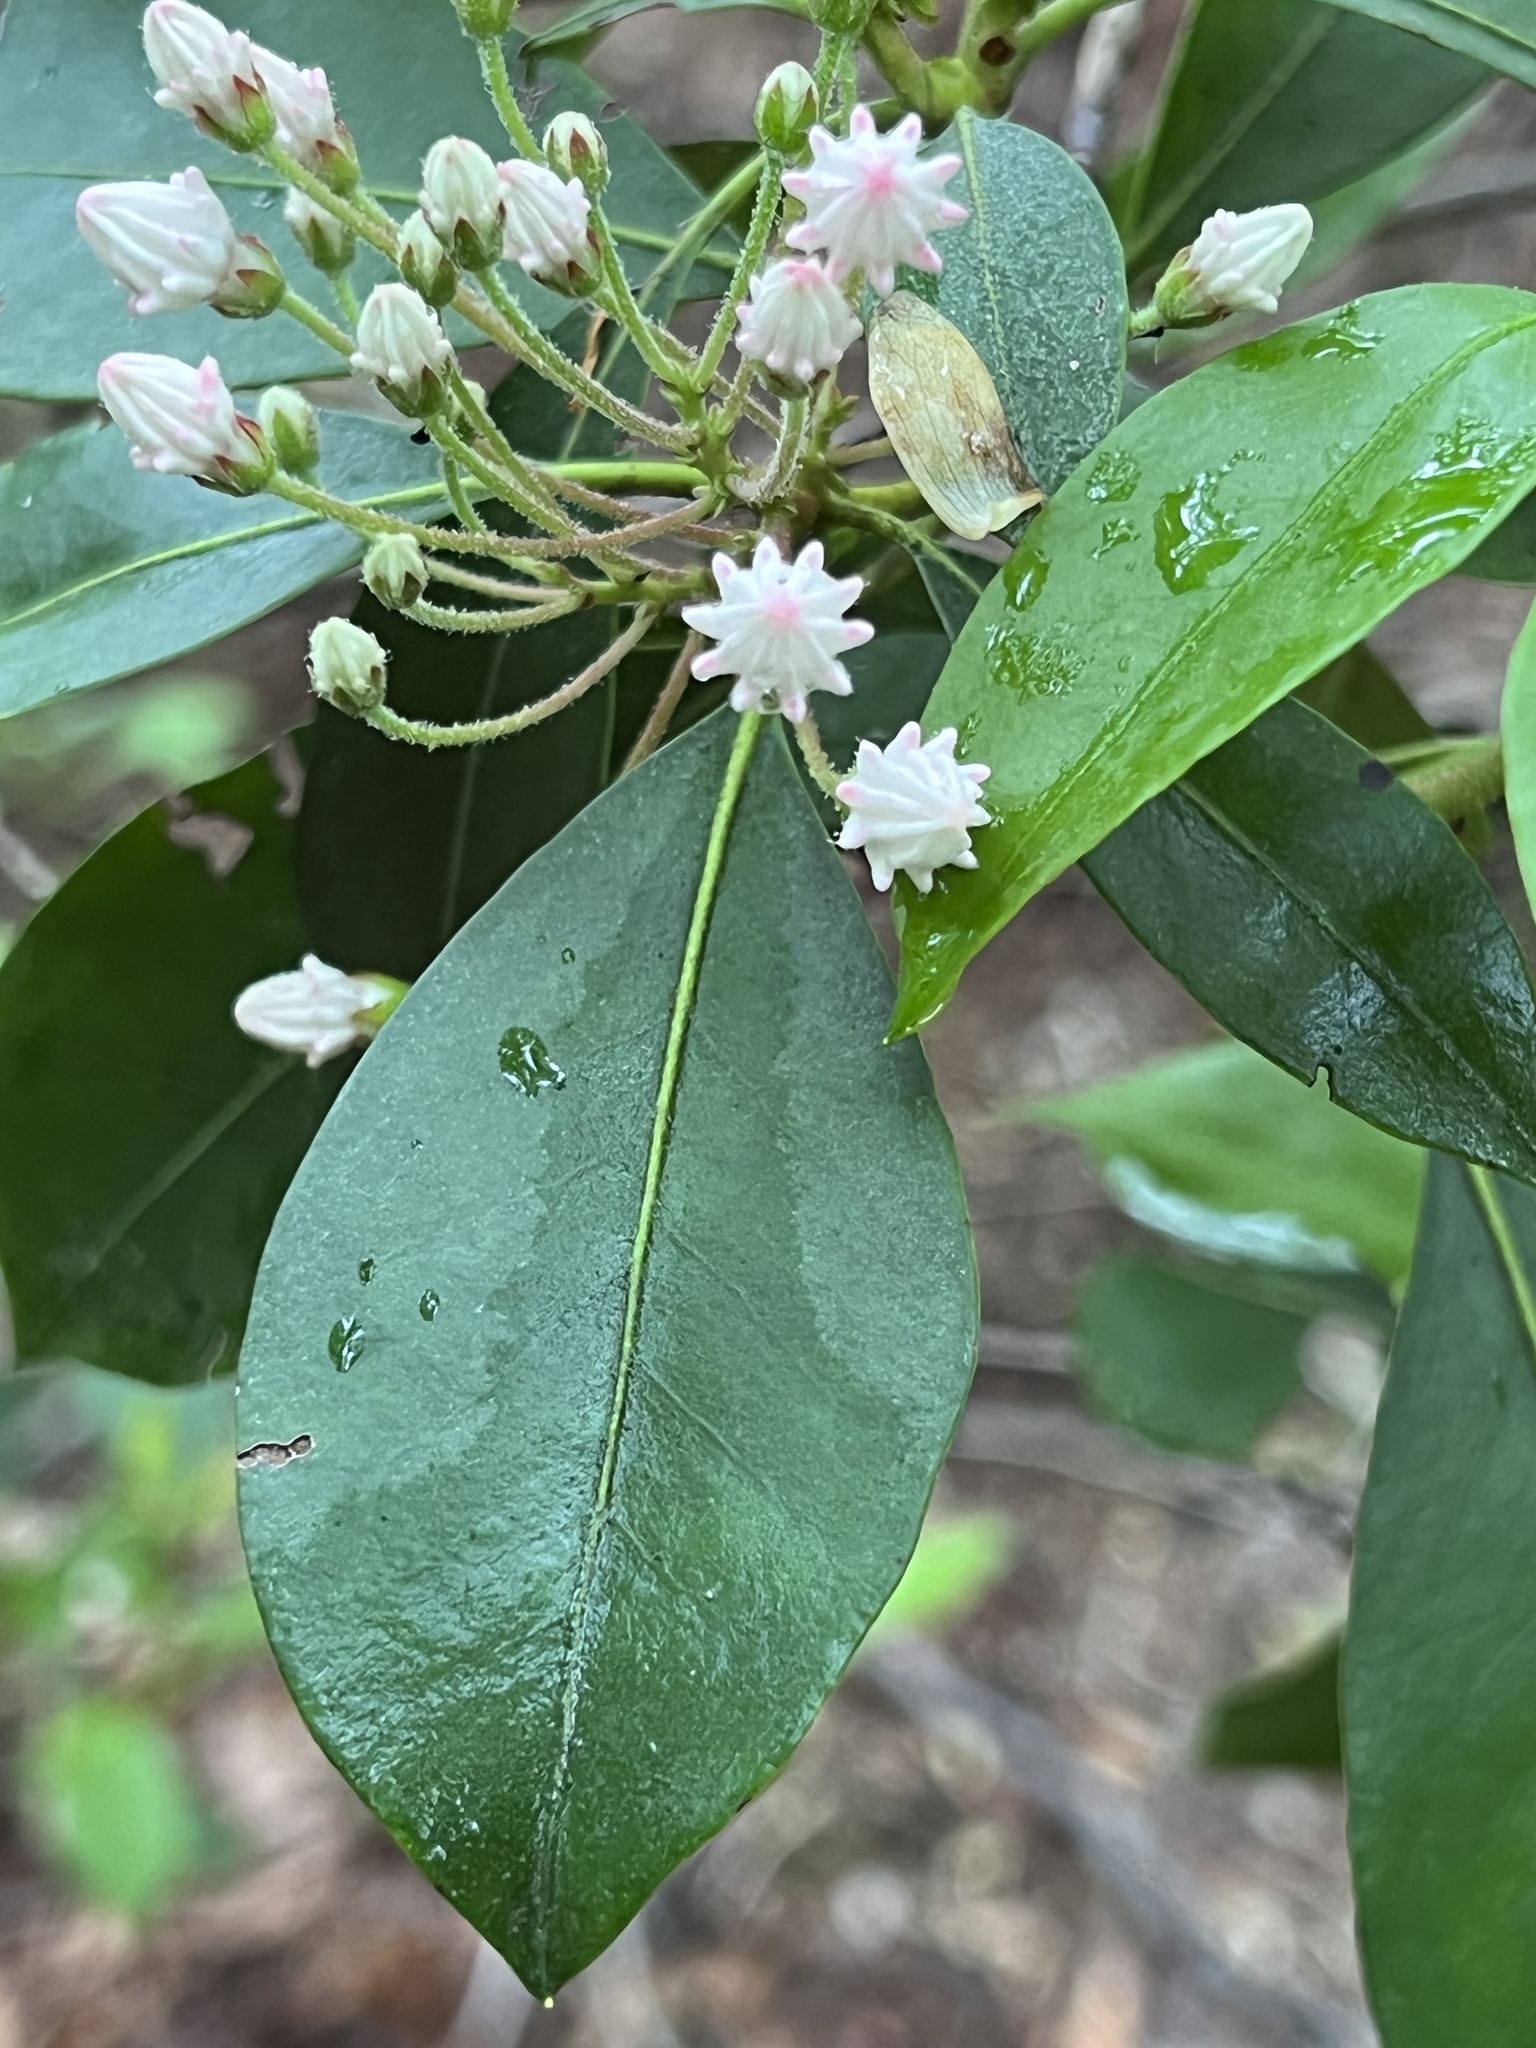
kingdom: Plantae
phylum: Tracheophyta
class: Magnoliopsida
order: Ericales
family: Ericaceae
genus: Kalmia
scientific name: Kalmia latifolia
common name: Mountain-laurel
